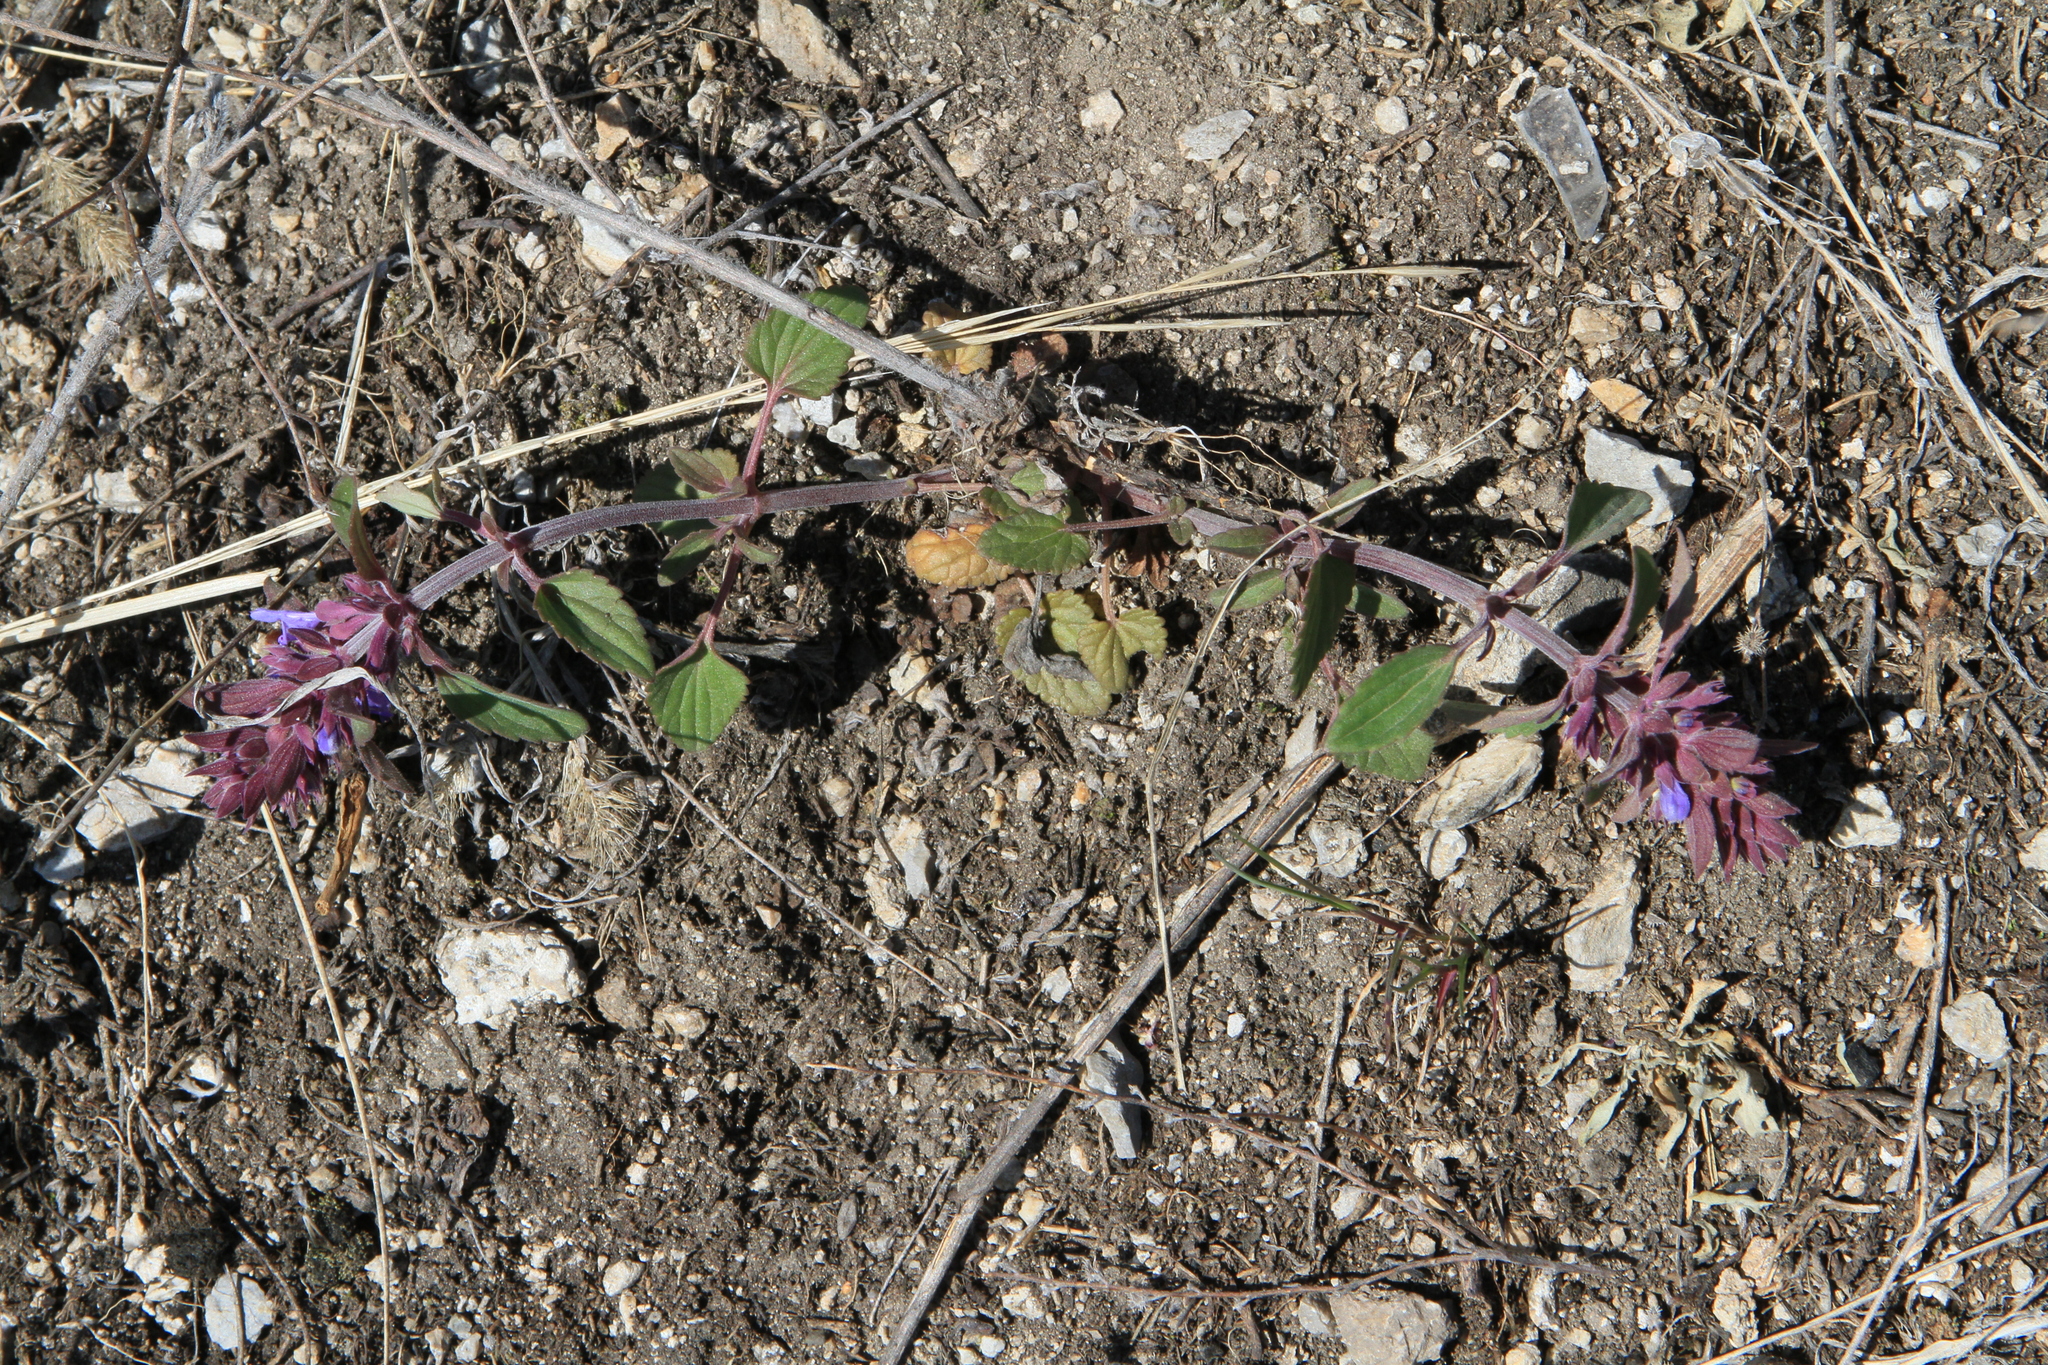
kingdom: Plantae
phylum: Tracheophyta
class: Magnoliopsida
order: Lamiales
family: Lamiaceae
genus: Dracocephalum
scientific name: Dracocephalum nutans
